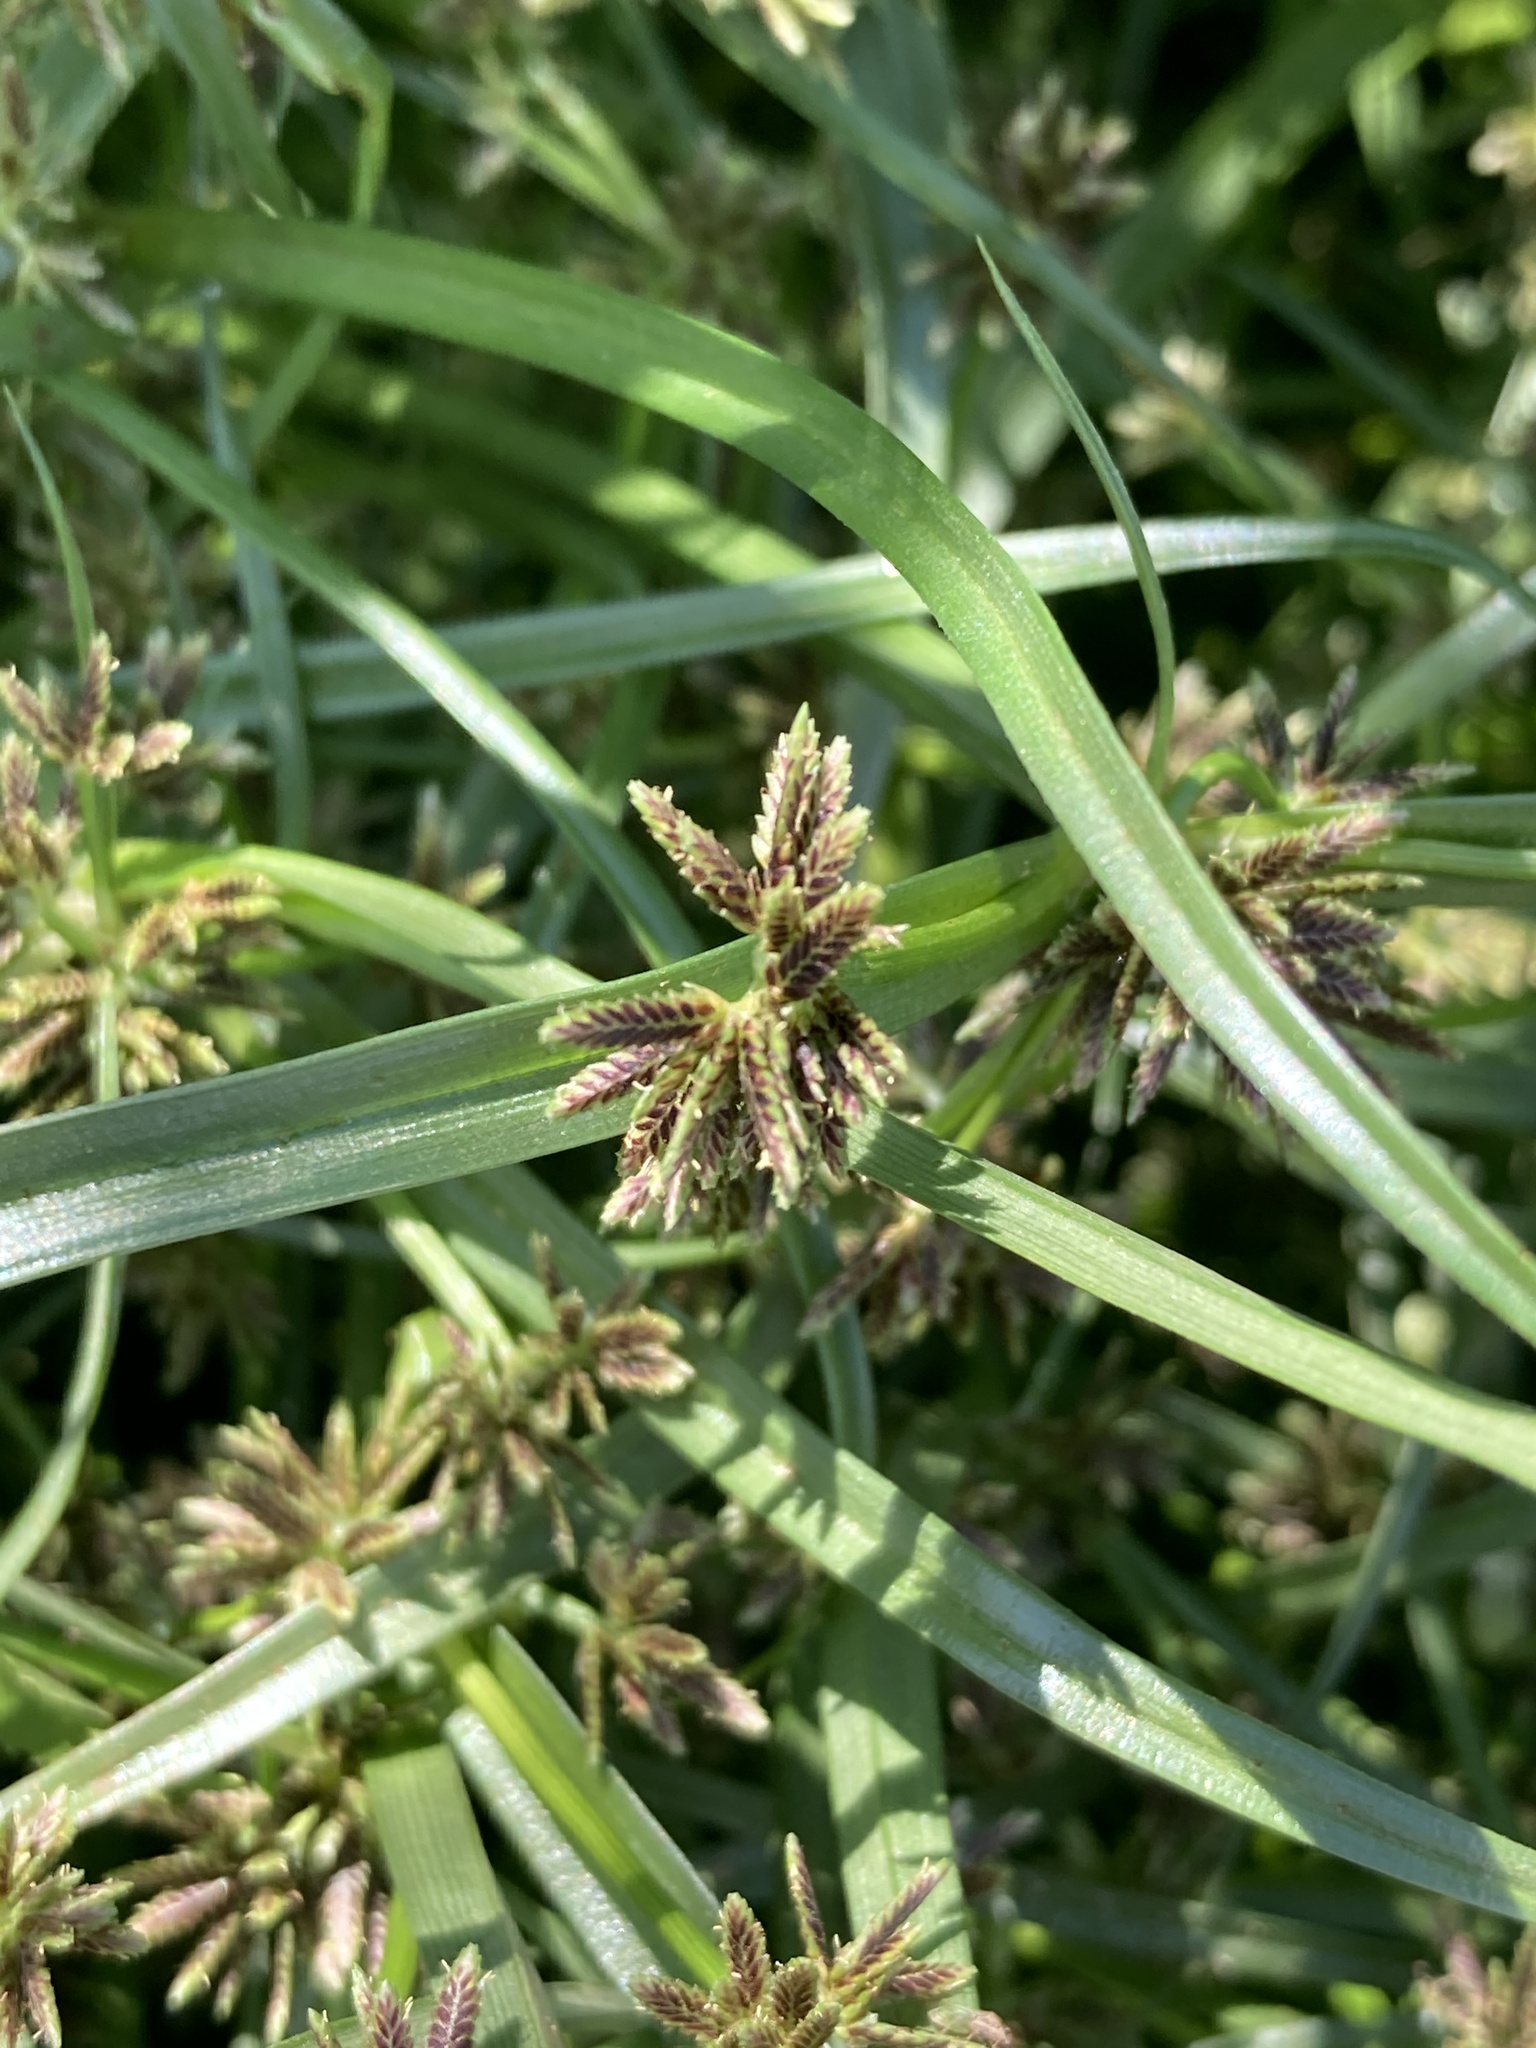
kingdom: Plantae
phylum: Tracheophyta
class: Liliopsida
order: Poales
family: Cyperaceae
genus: Cyperus
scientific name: Cyperus fuscus
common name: Brown galingale
